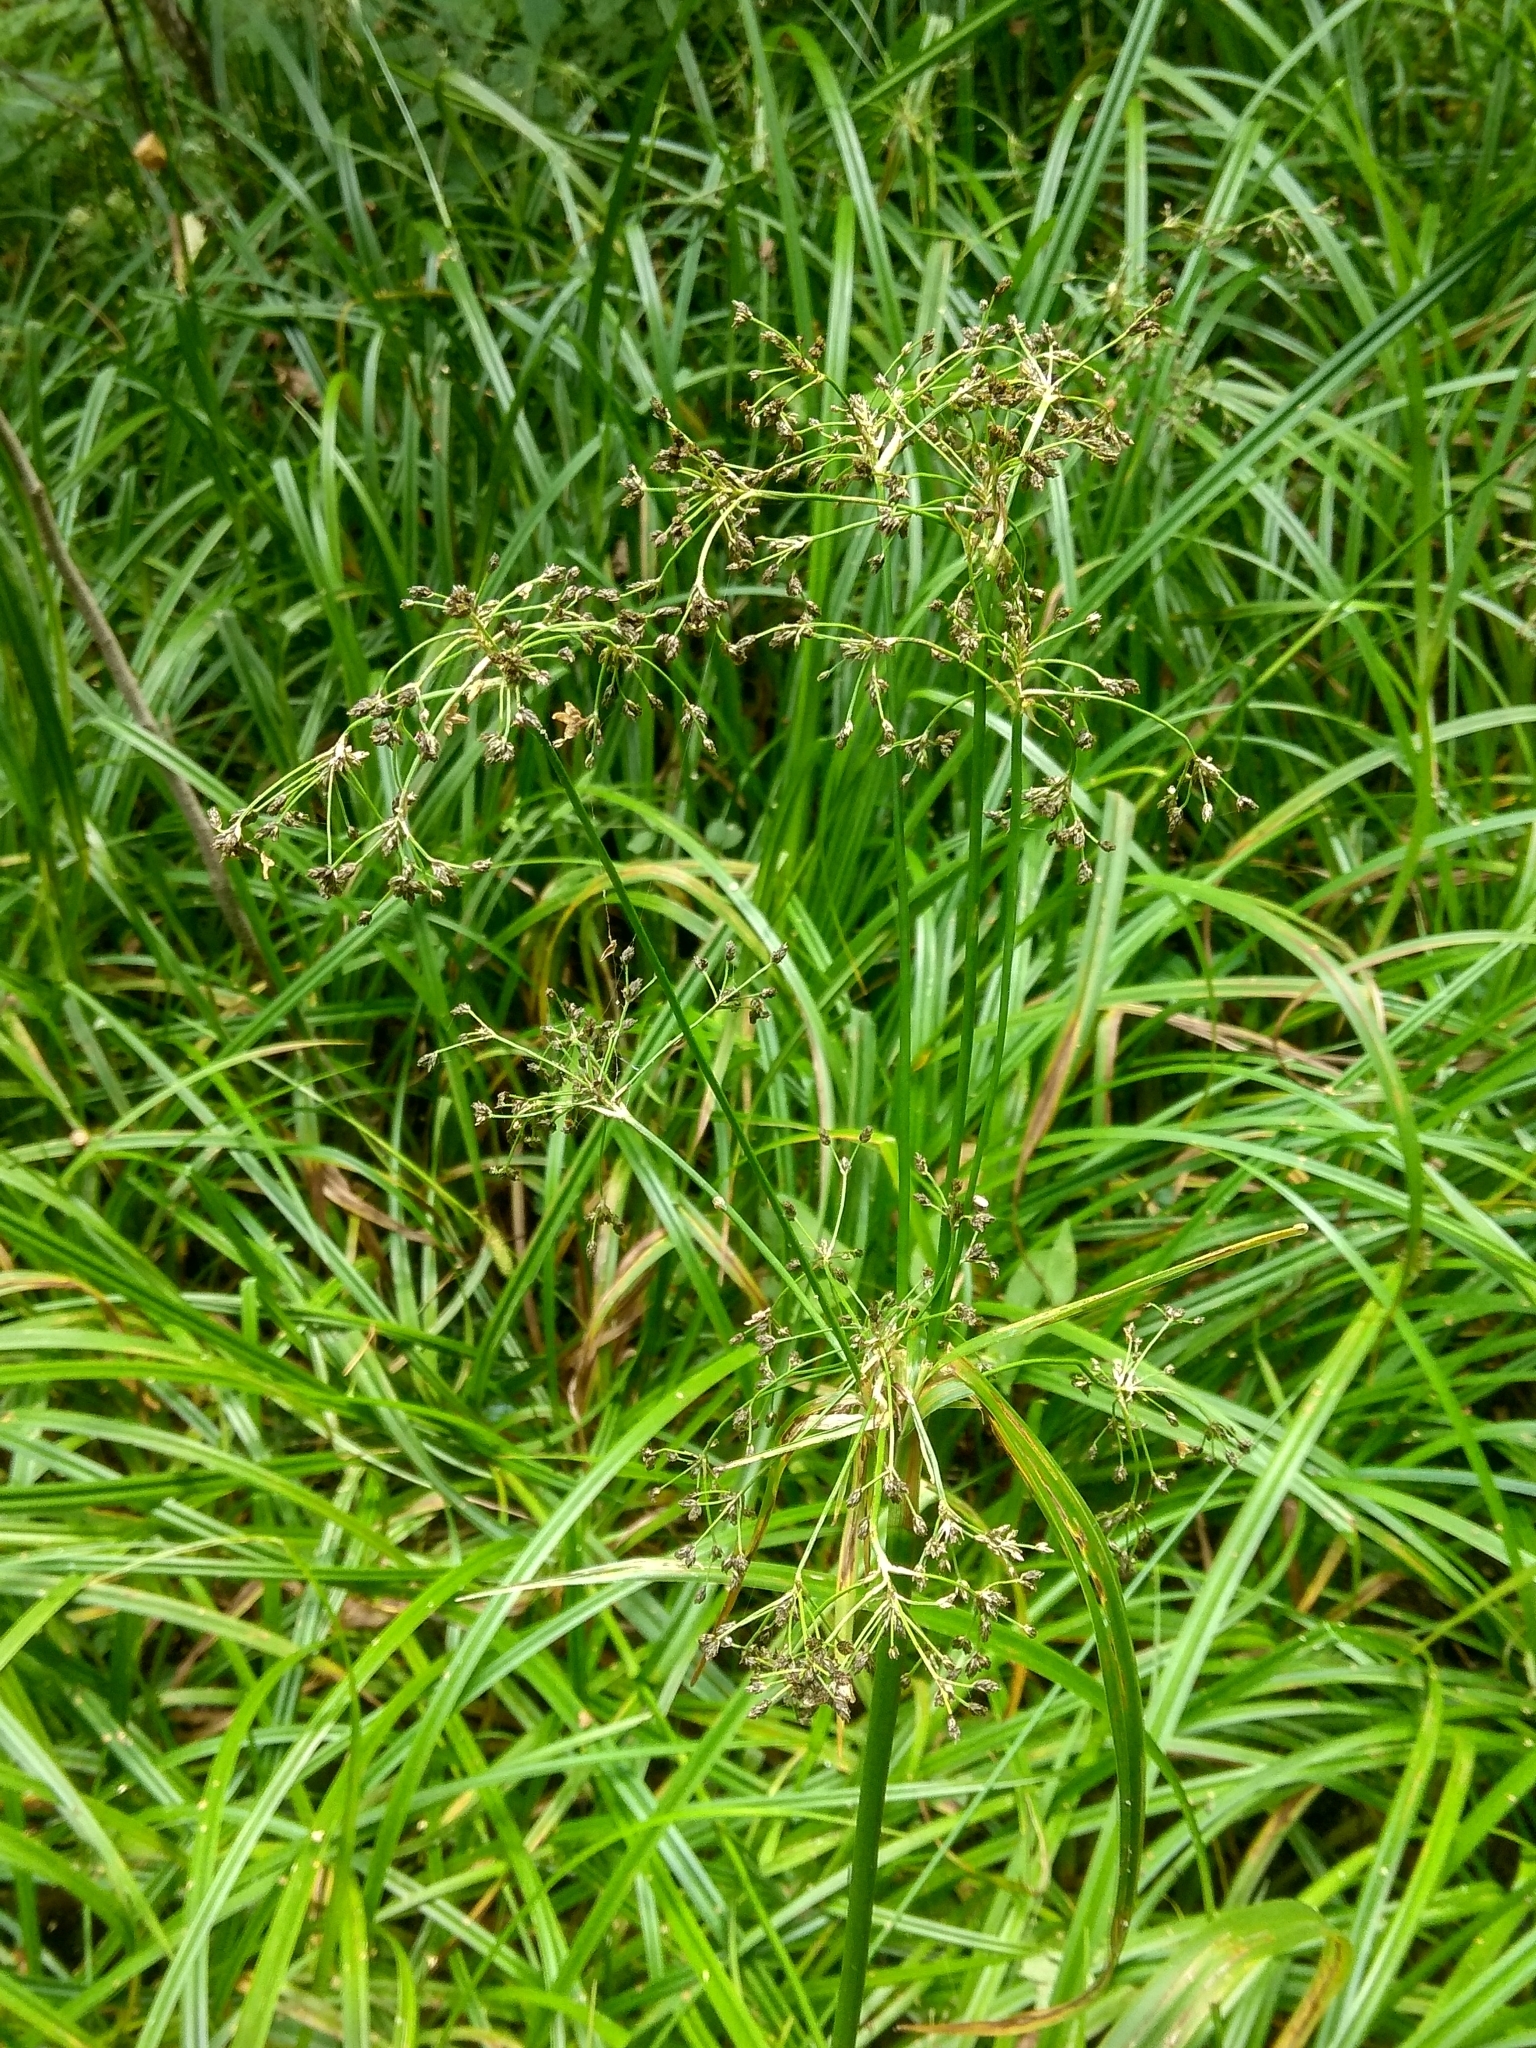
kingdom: Plantae
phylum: Tracheophyta
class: Liliopsida
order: Poales
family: Cyperaceae
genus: Scirpus
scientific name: Scirpus sylvaticus
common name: Wood club-rush
